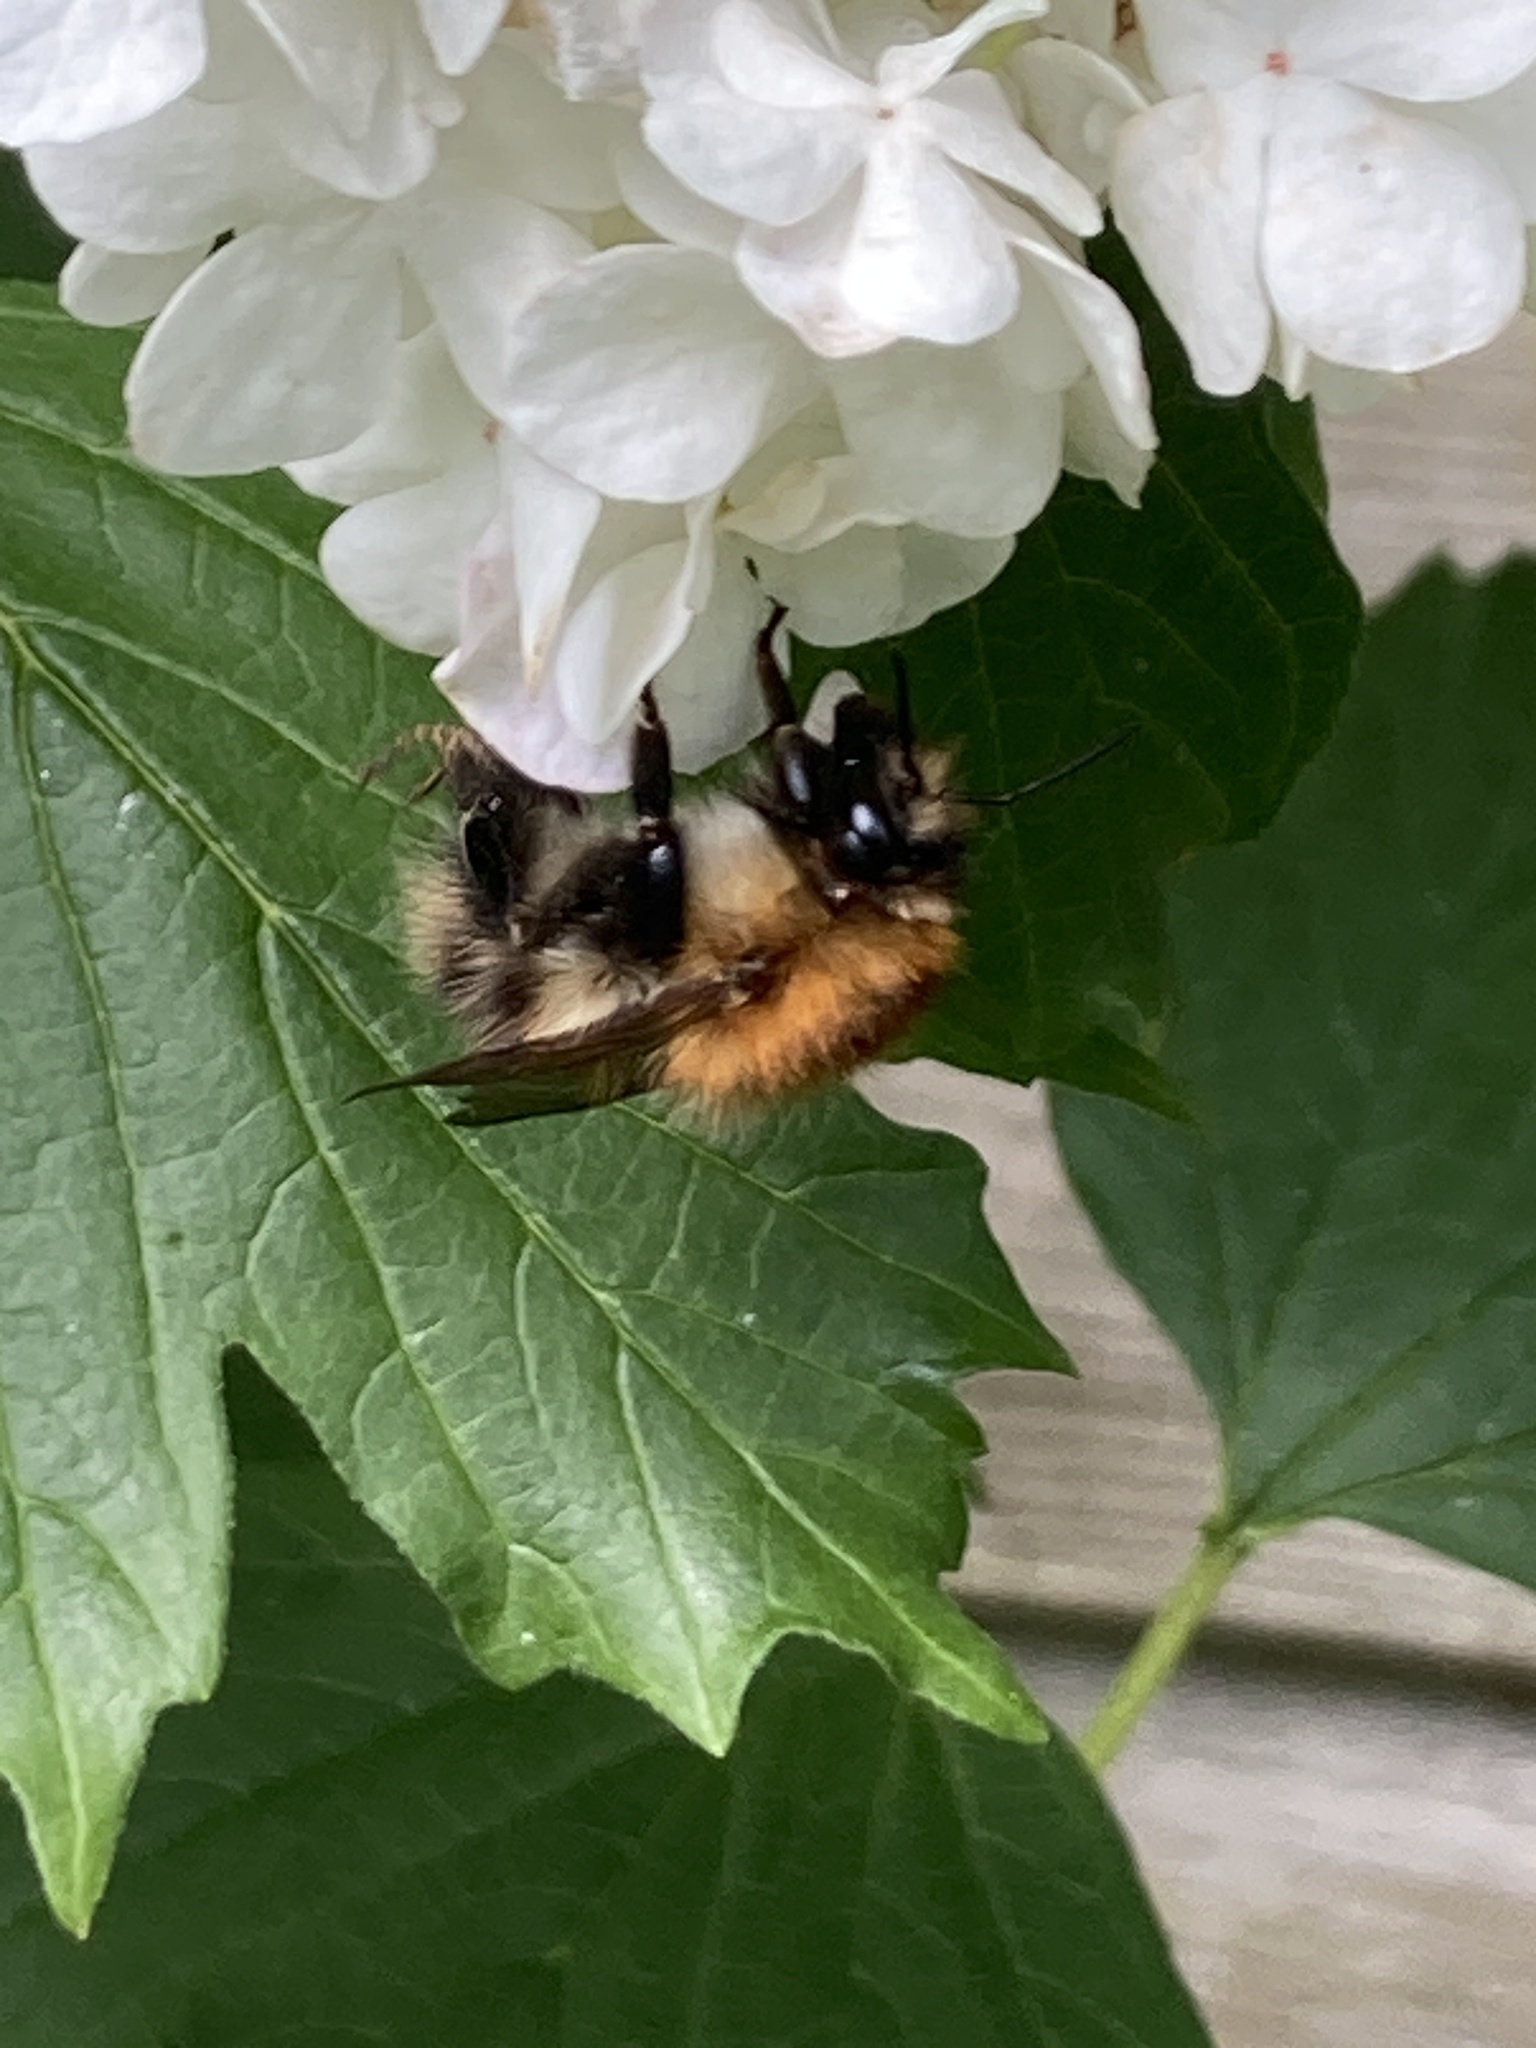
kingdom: Animalia
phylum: Arthropoda
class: Insecta
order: Hymenoptera
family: Apidae
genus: Bombus
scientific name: Bombus pascuorum
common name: Common carder bee
